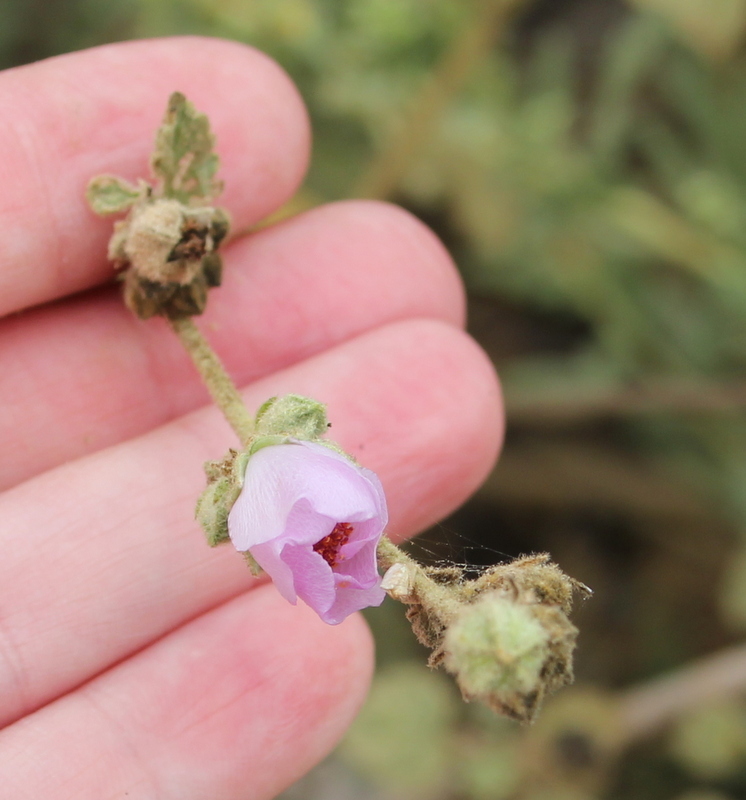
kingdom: Plantae
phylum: Tracheophyta
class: Magnoliopsida
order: Malvales
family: Malvaceae
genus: Malacothamnus
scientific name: Malacothamnus fasciculatus
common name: Sant cruz island bush-mallow
